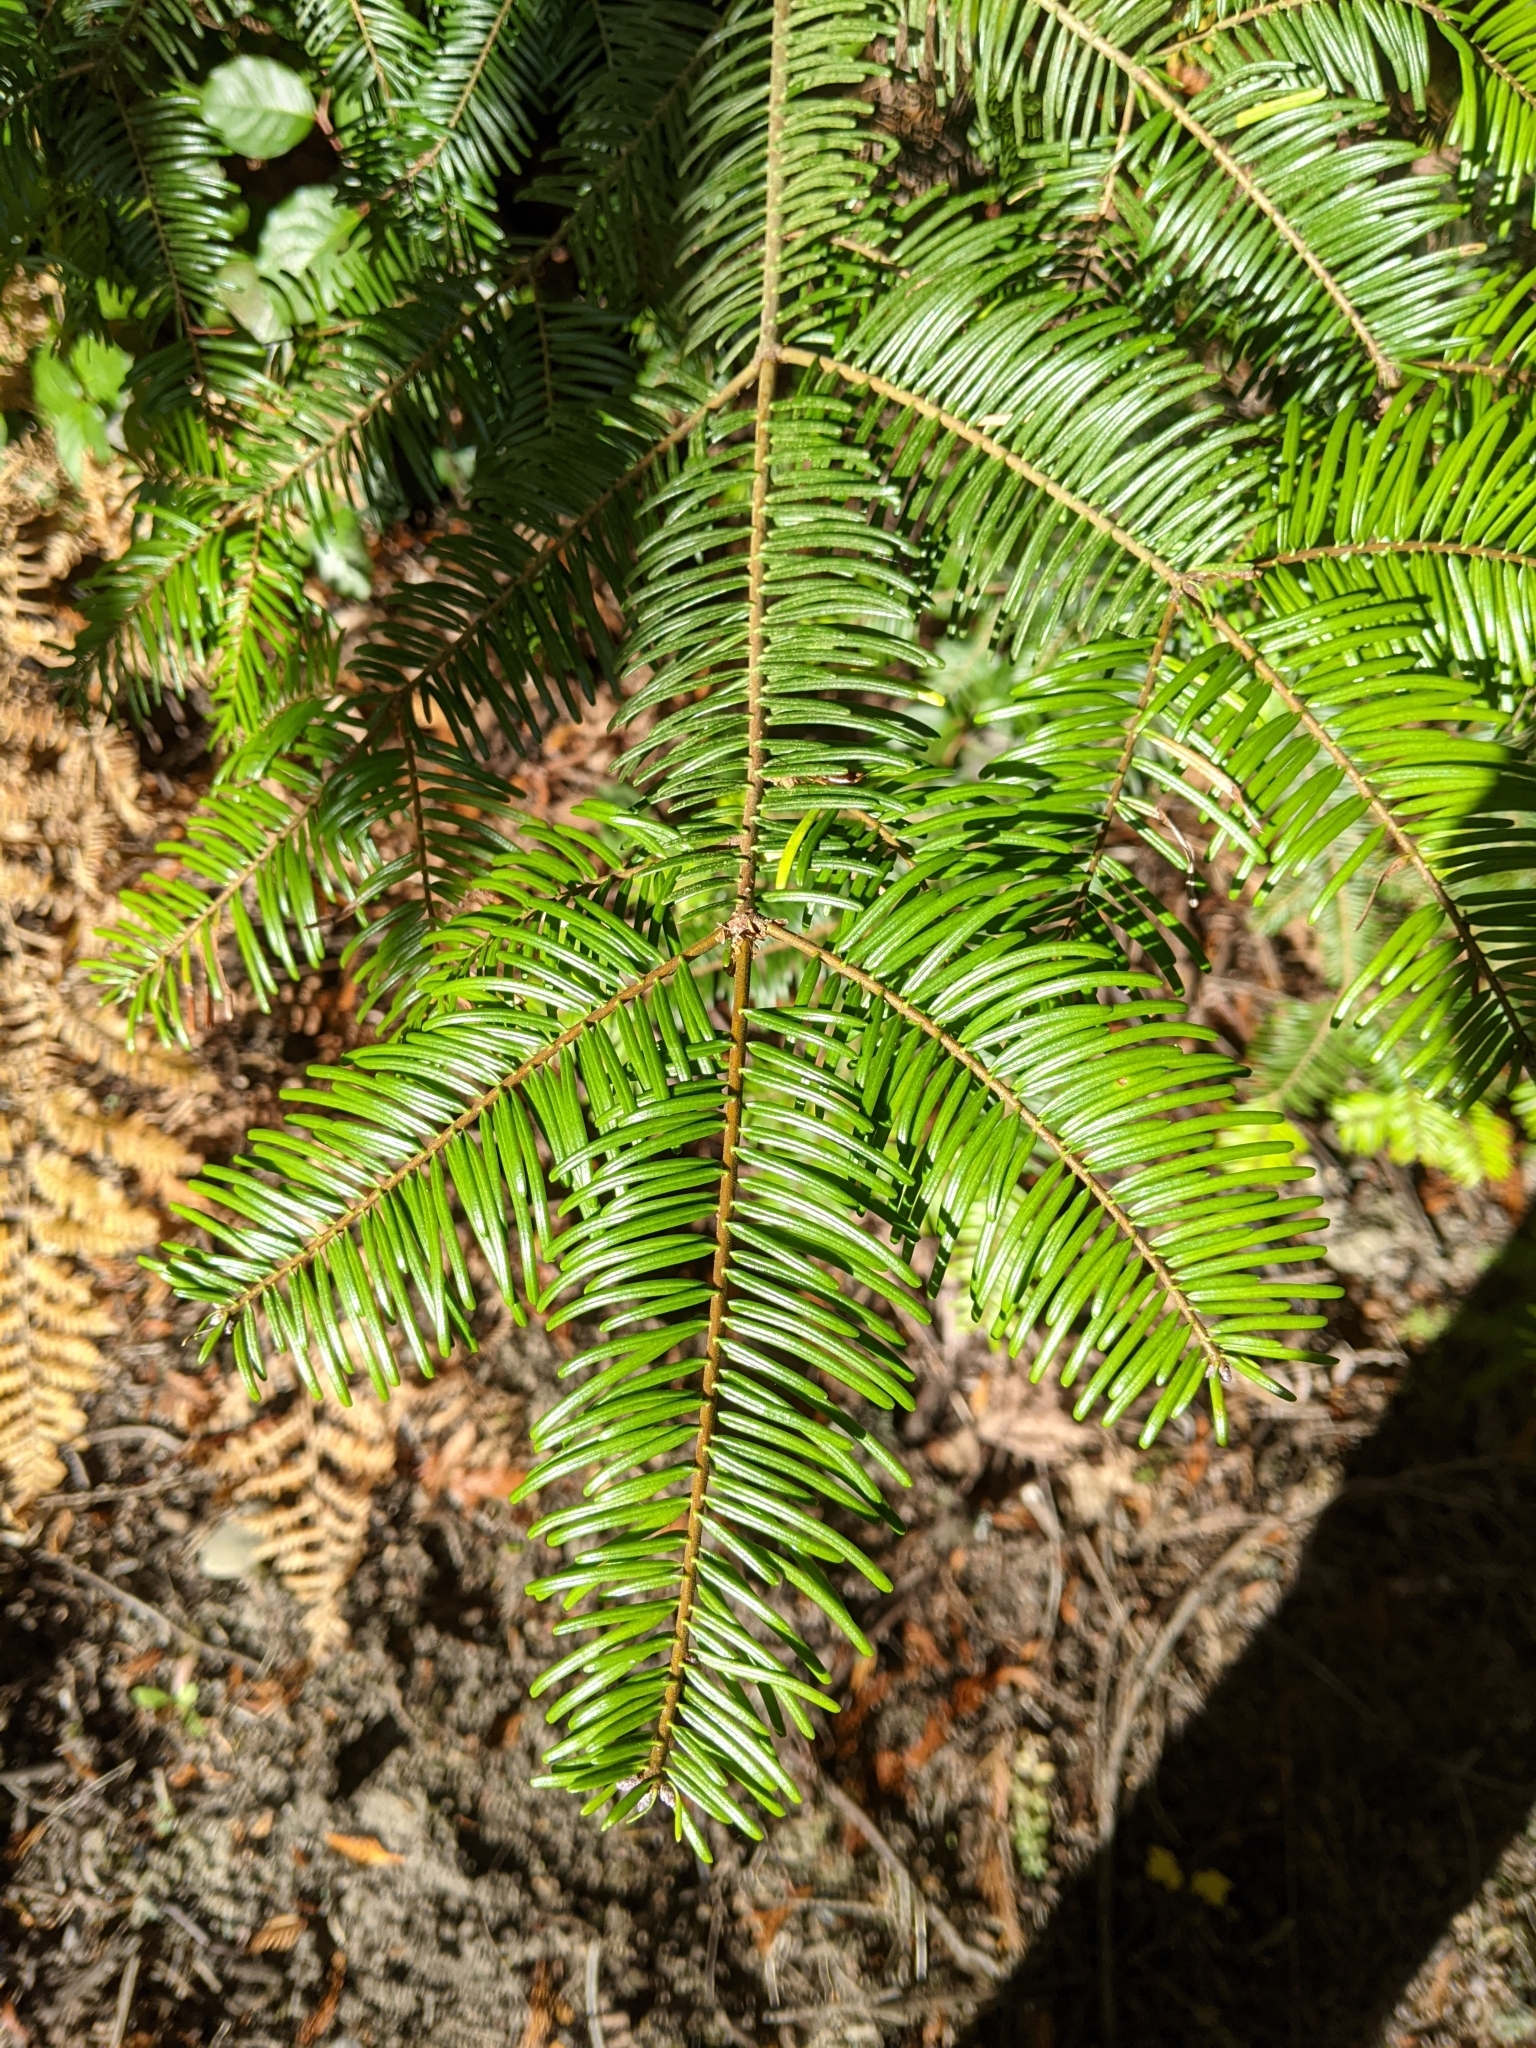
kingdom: Plantae
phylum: Tracheophyta
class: Pinopsida
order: Pinales
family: Pinaceae
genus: Abies
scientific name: Abies grandis
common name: Giant fir
